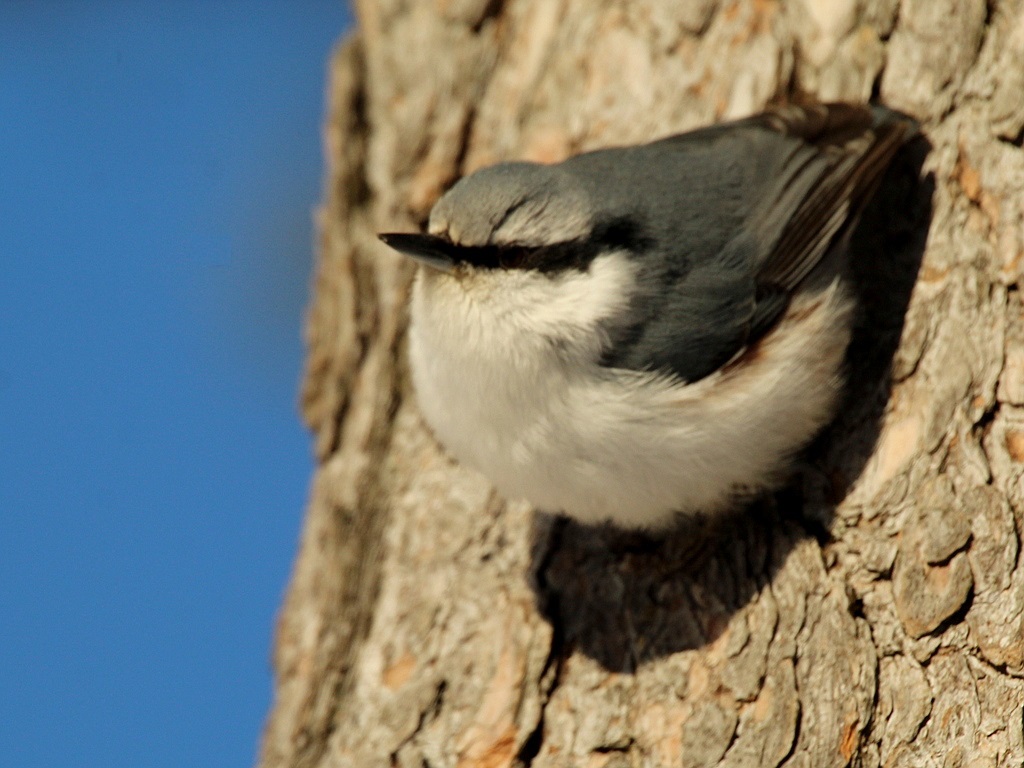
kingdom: Animalia
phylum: Chordata
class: Aves
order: Passeriformes
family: Sittidae
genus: Sitta
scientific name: Sitta europaea
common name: Eurasian nuthatch
